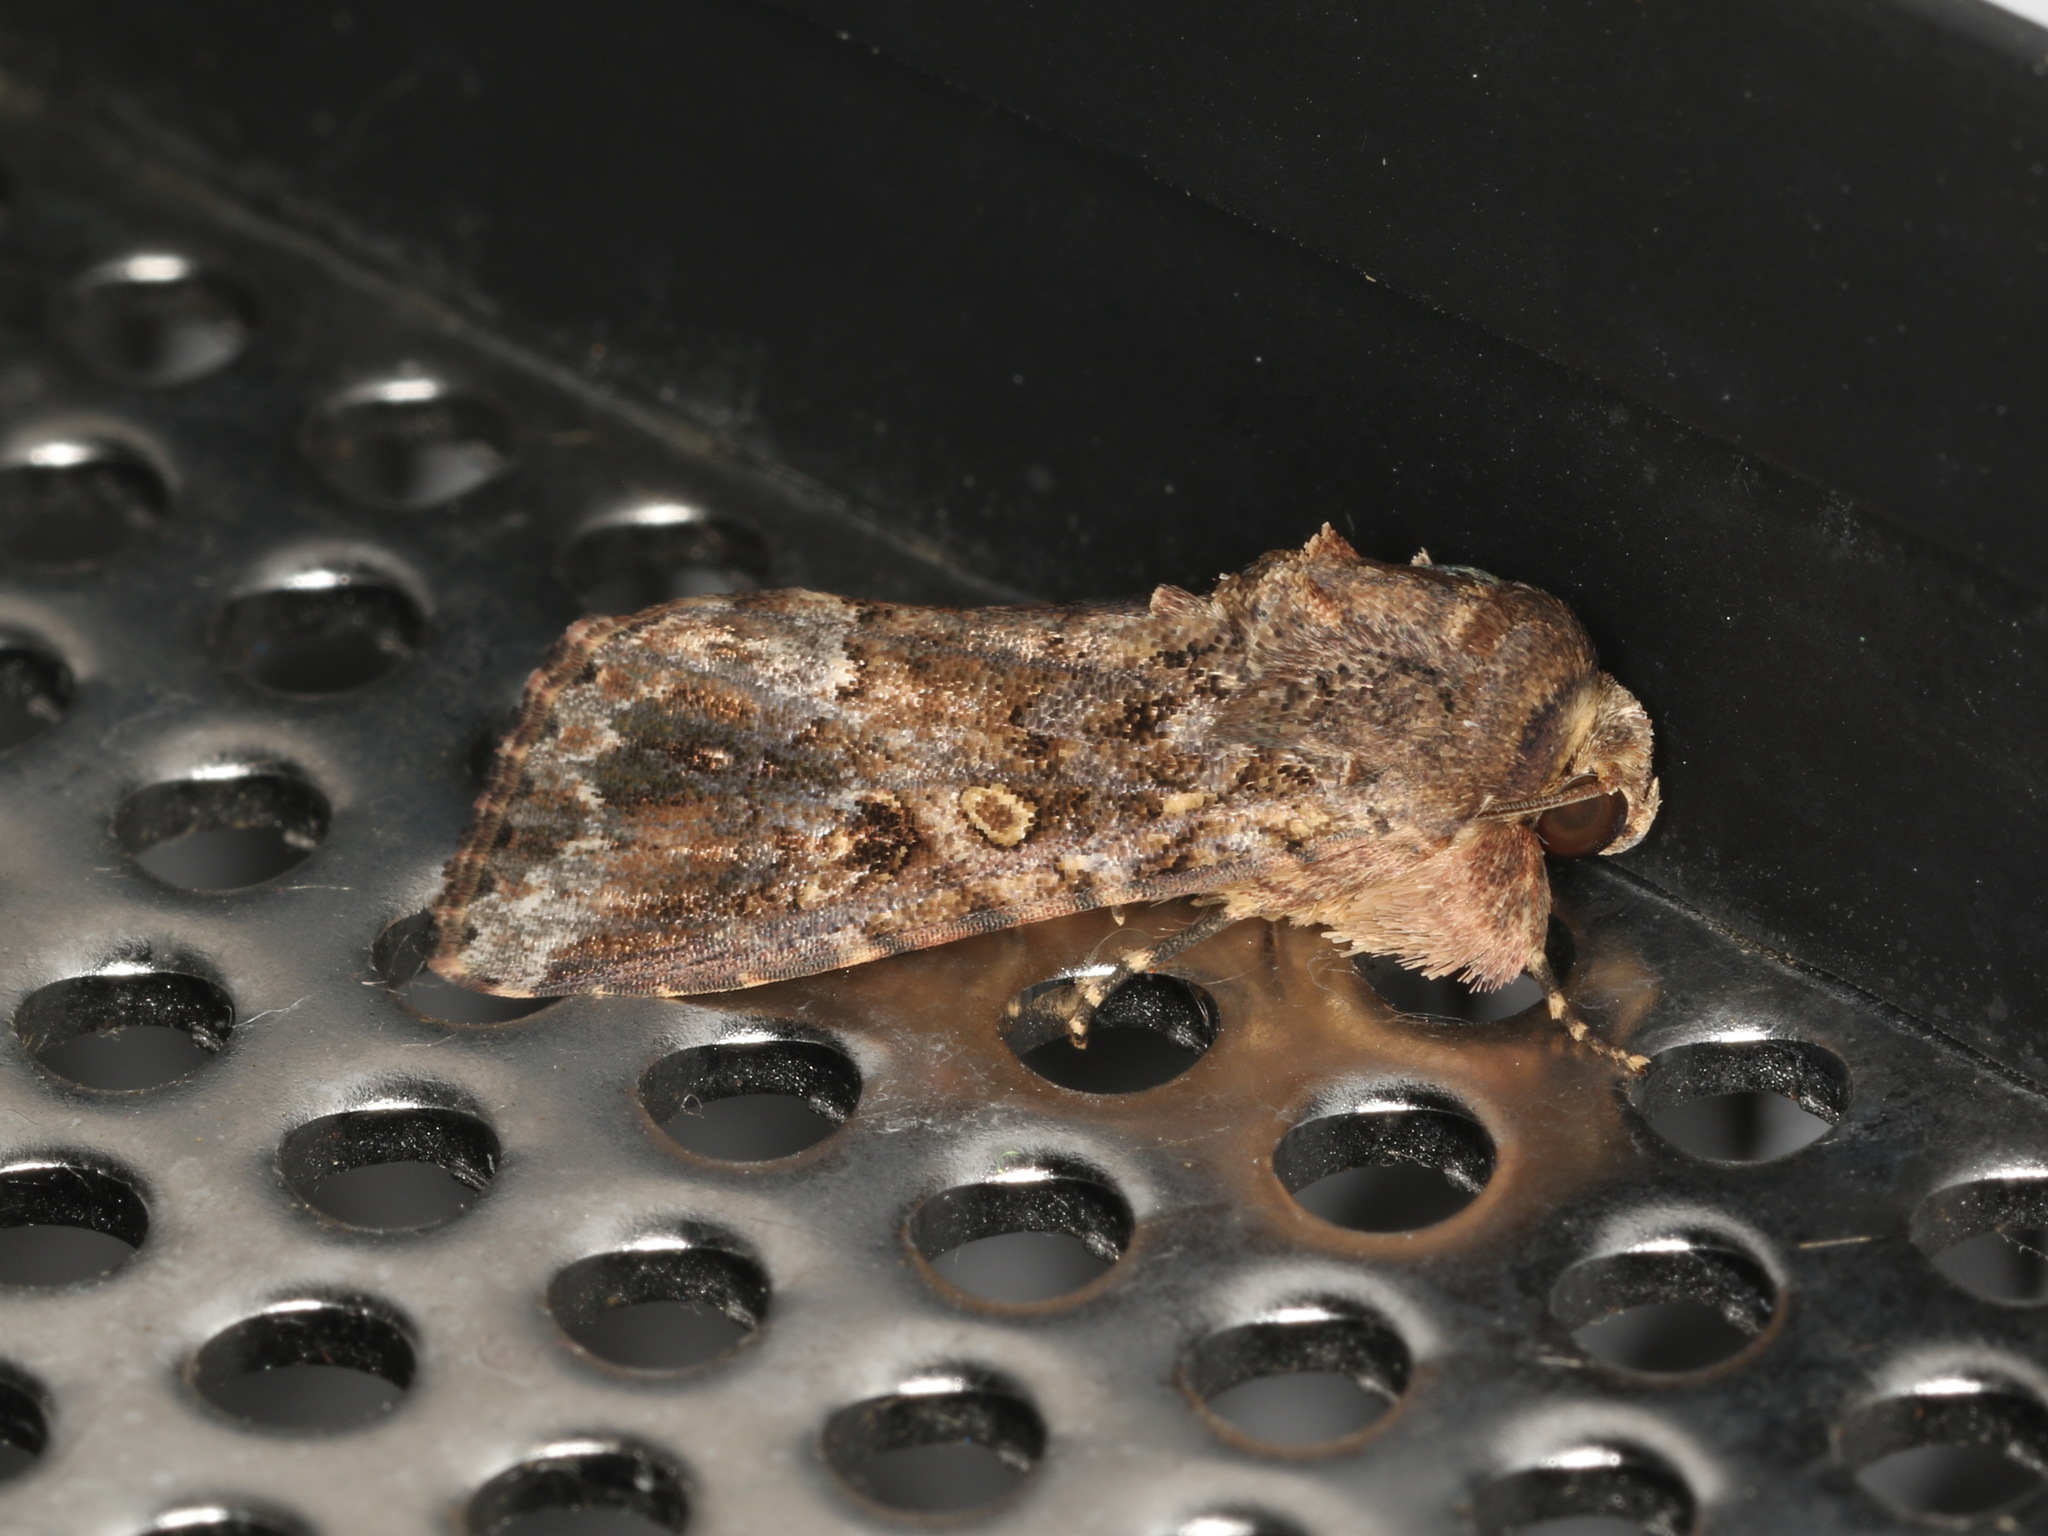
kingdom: Animalia
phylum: Arthropoda
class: Insecta
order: Lepidoptera
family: Noctuidae
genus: Spodoptera
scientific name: Spodoptera mauritia
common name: Lawn armyworm
